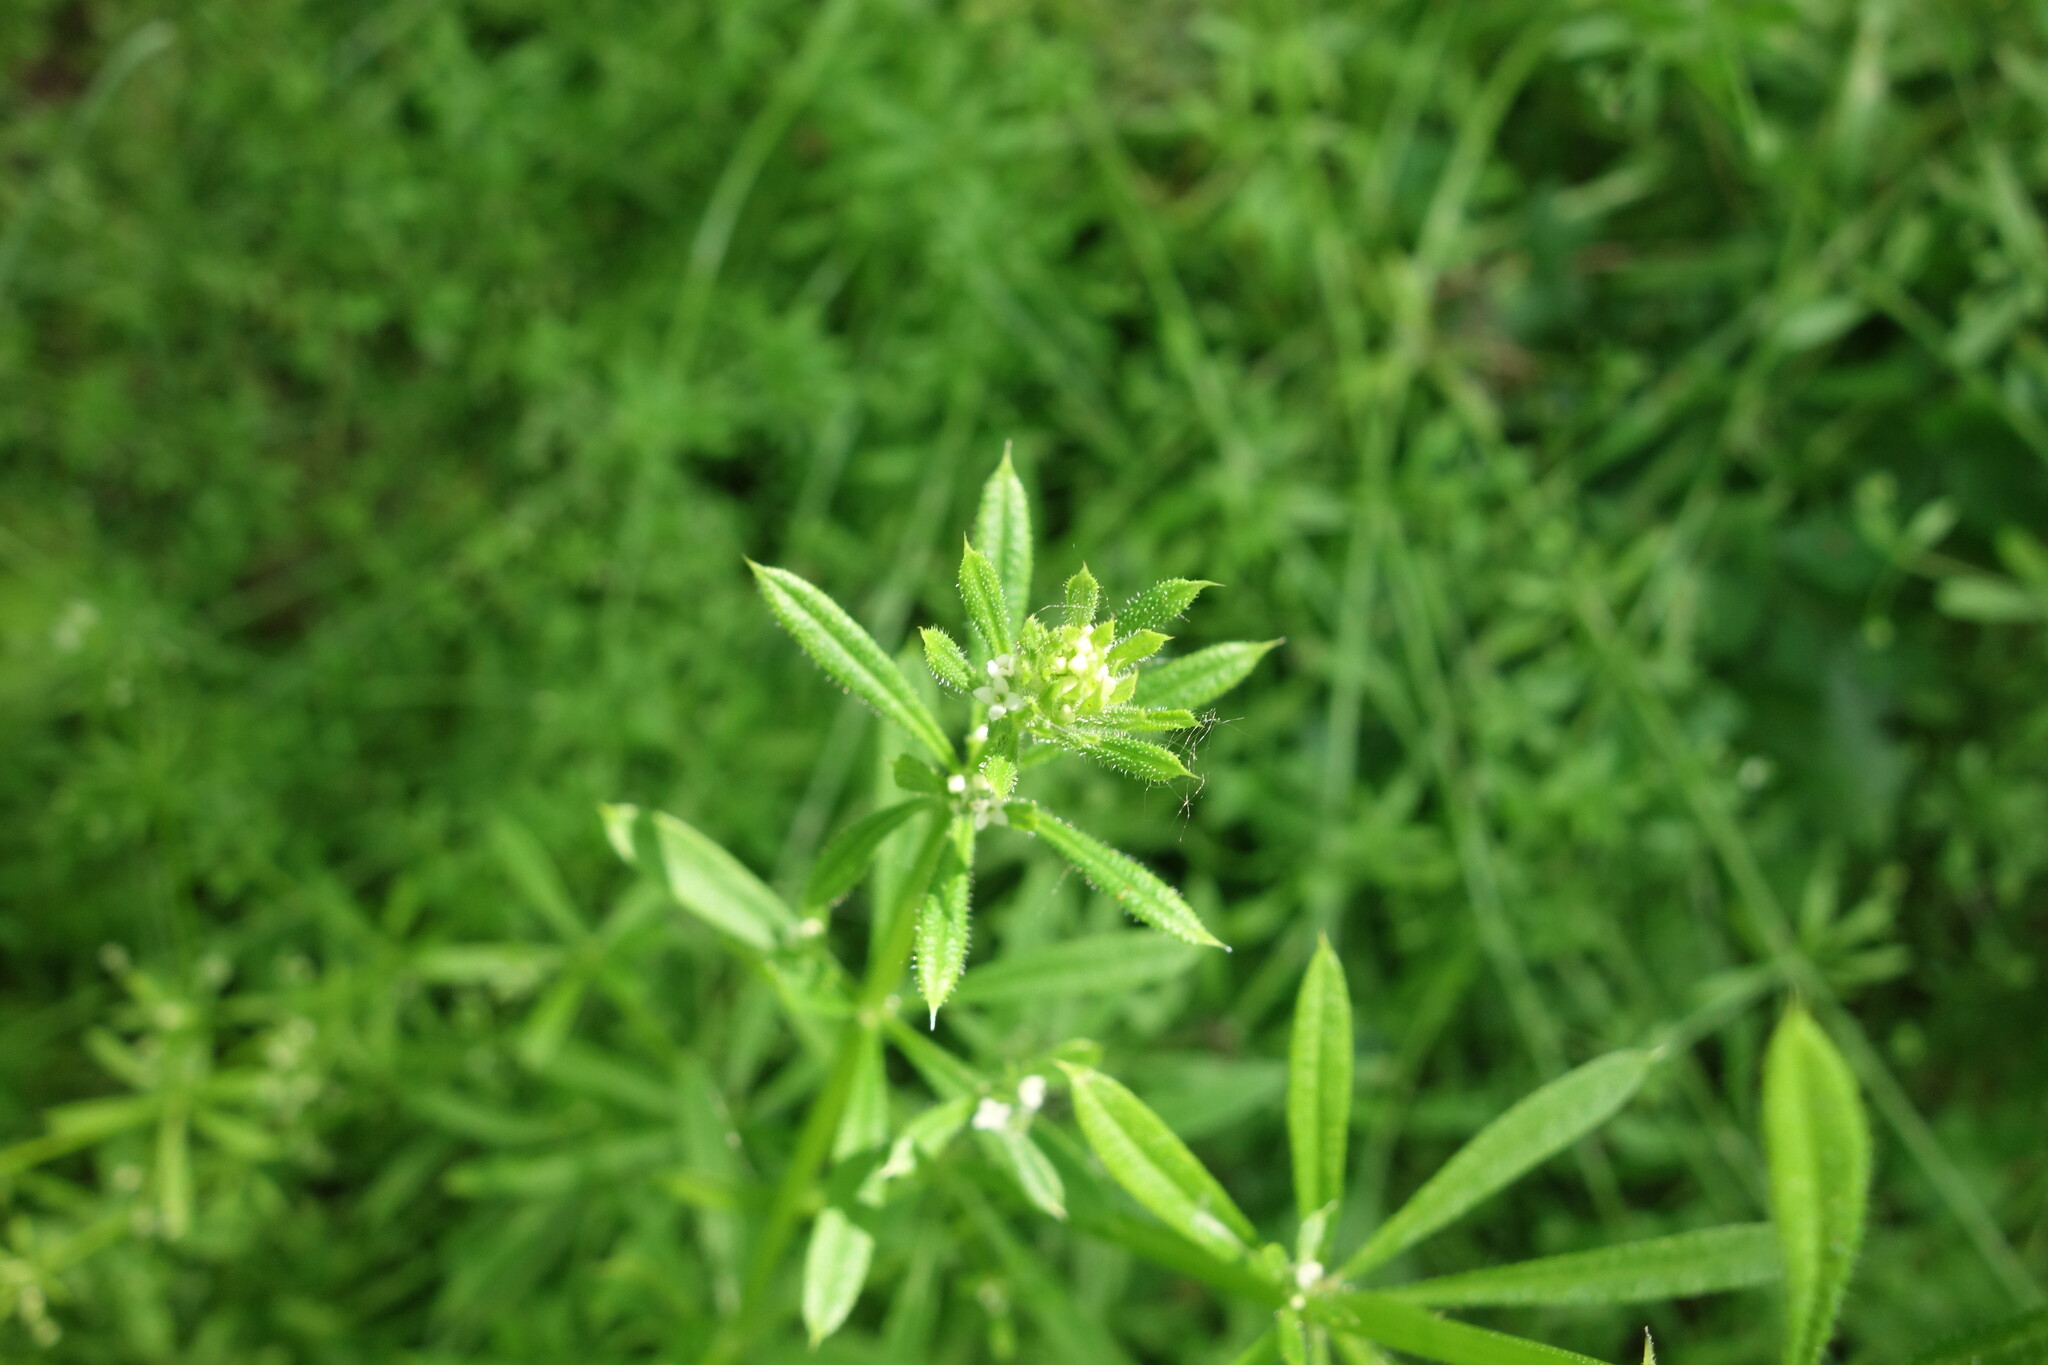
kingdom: Plantae
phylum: Tracheophyta
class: Magnoliopsida
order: Gentianales
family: Rubiaceae
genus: Galium
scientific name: Galium aparine
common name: Cleavers
